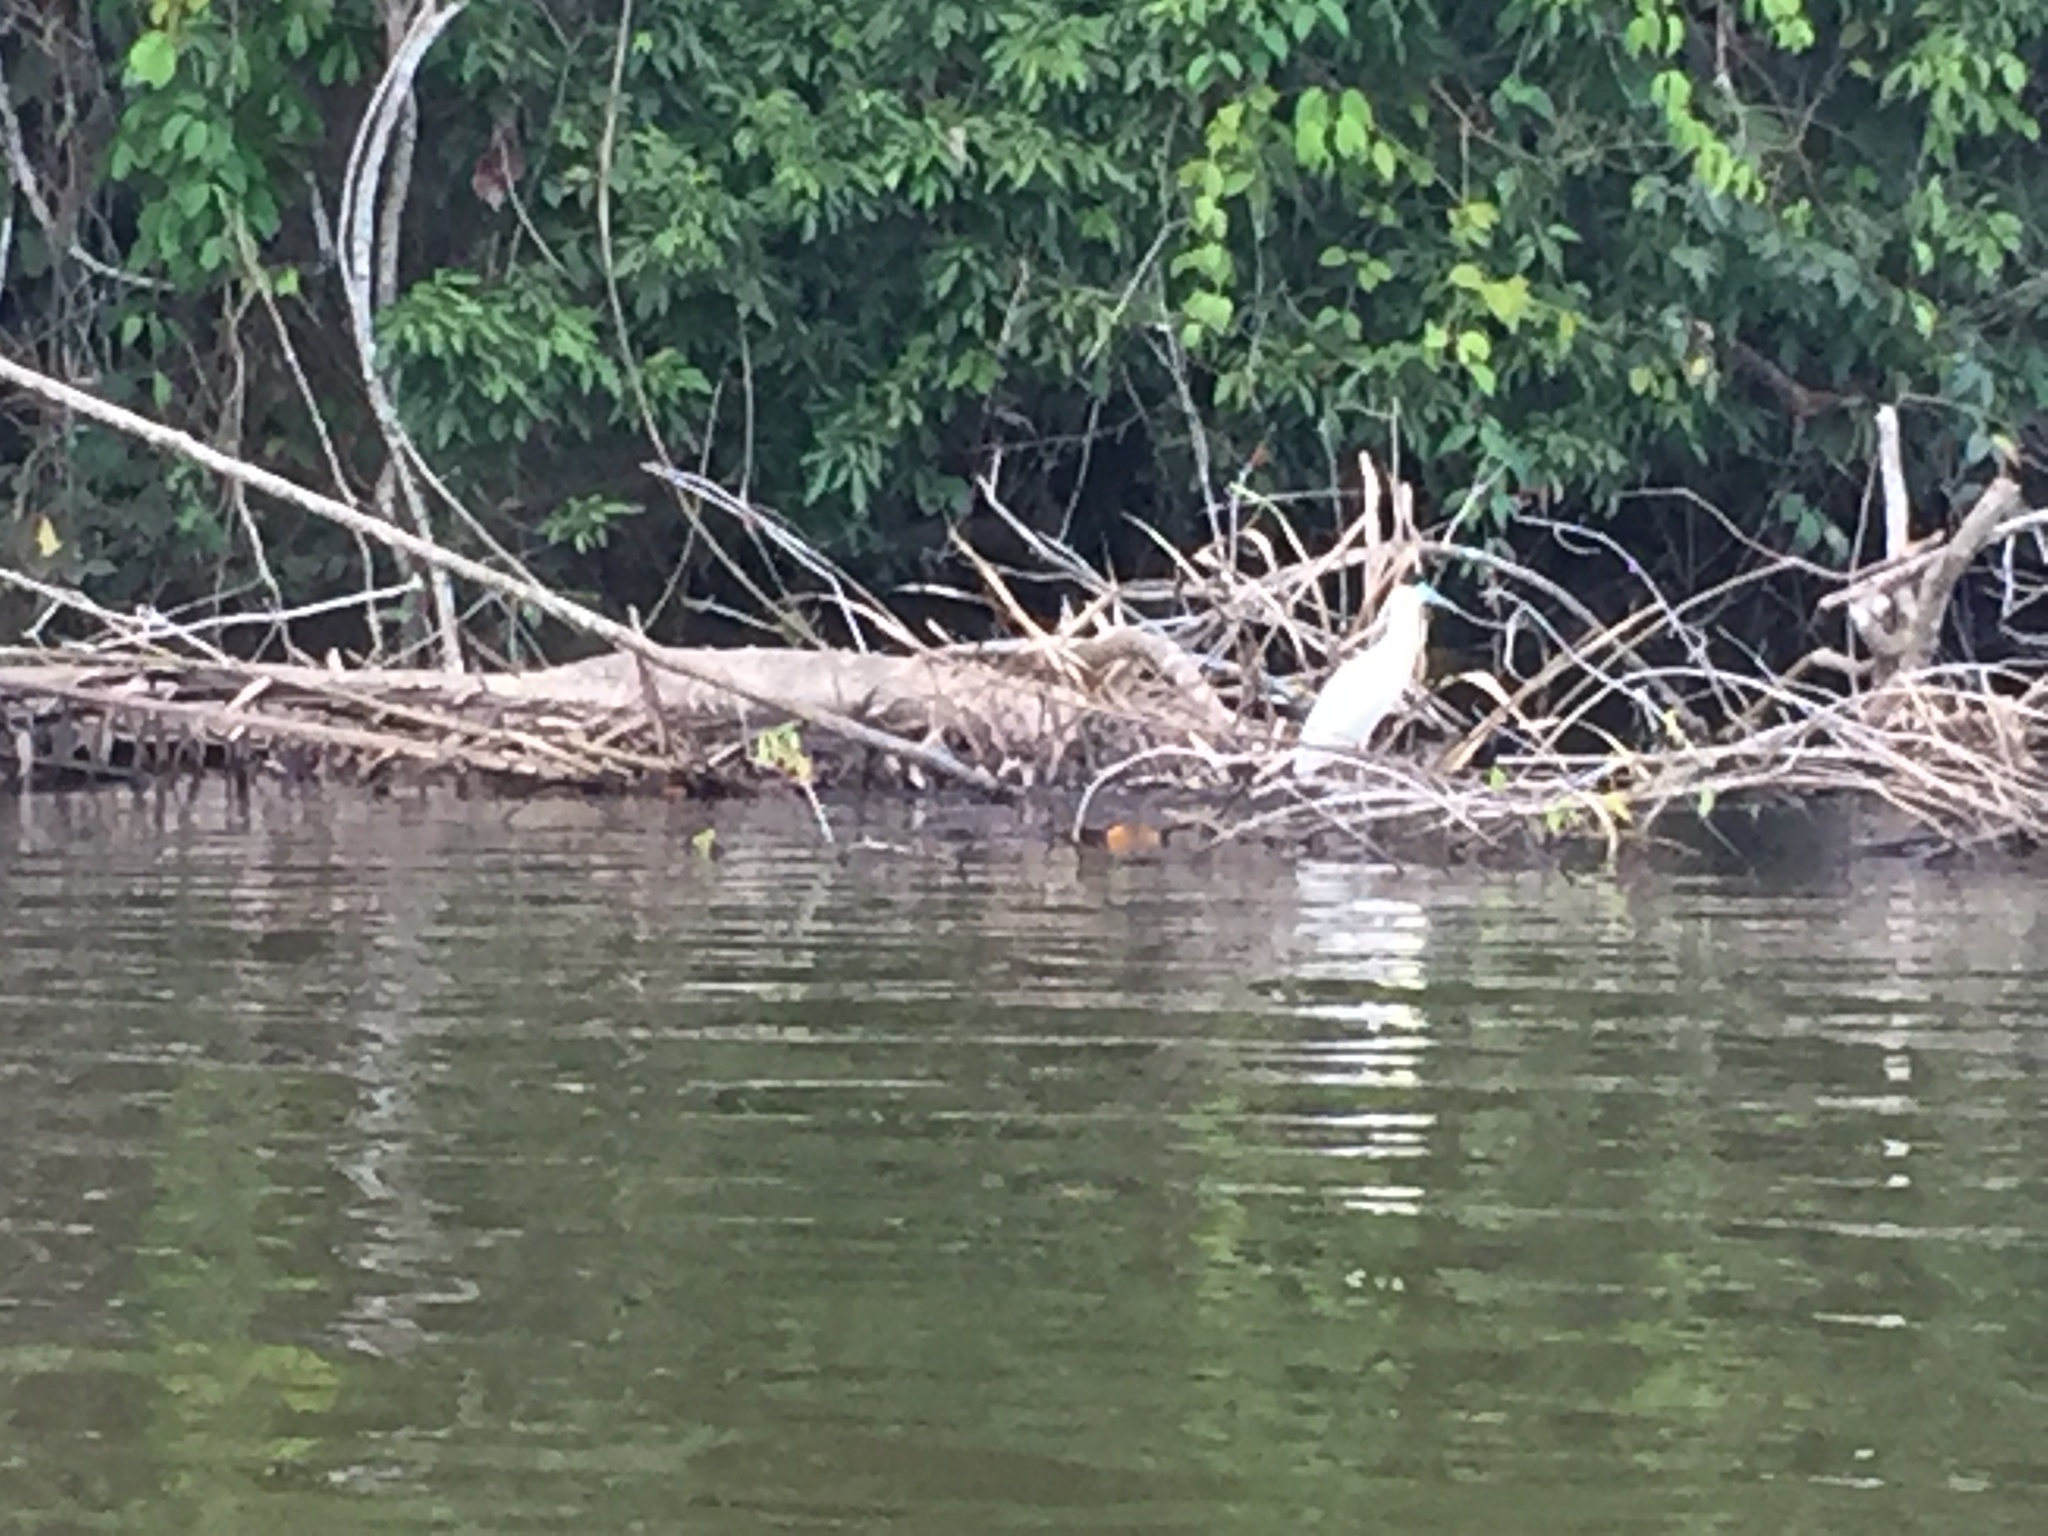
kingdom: Animalia
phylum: Chordata
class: Aves
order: Pelecaniformes
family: Ardeidae
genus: Pilherodius
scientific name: Pilherodius pileatus
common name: Capped heron
